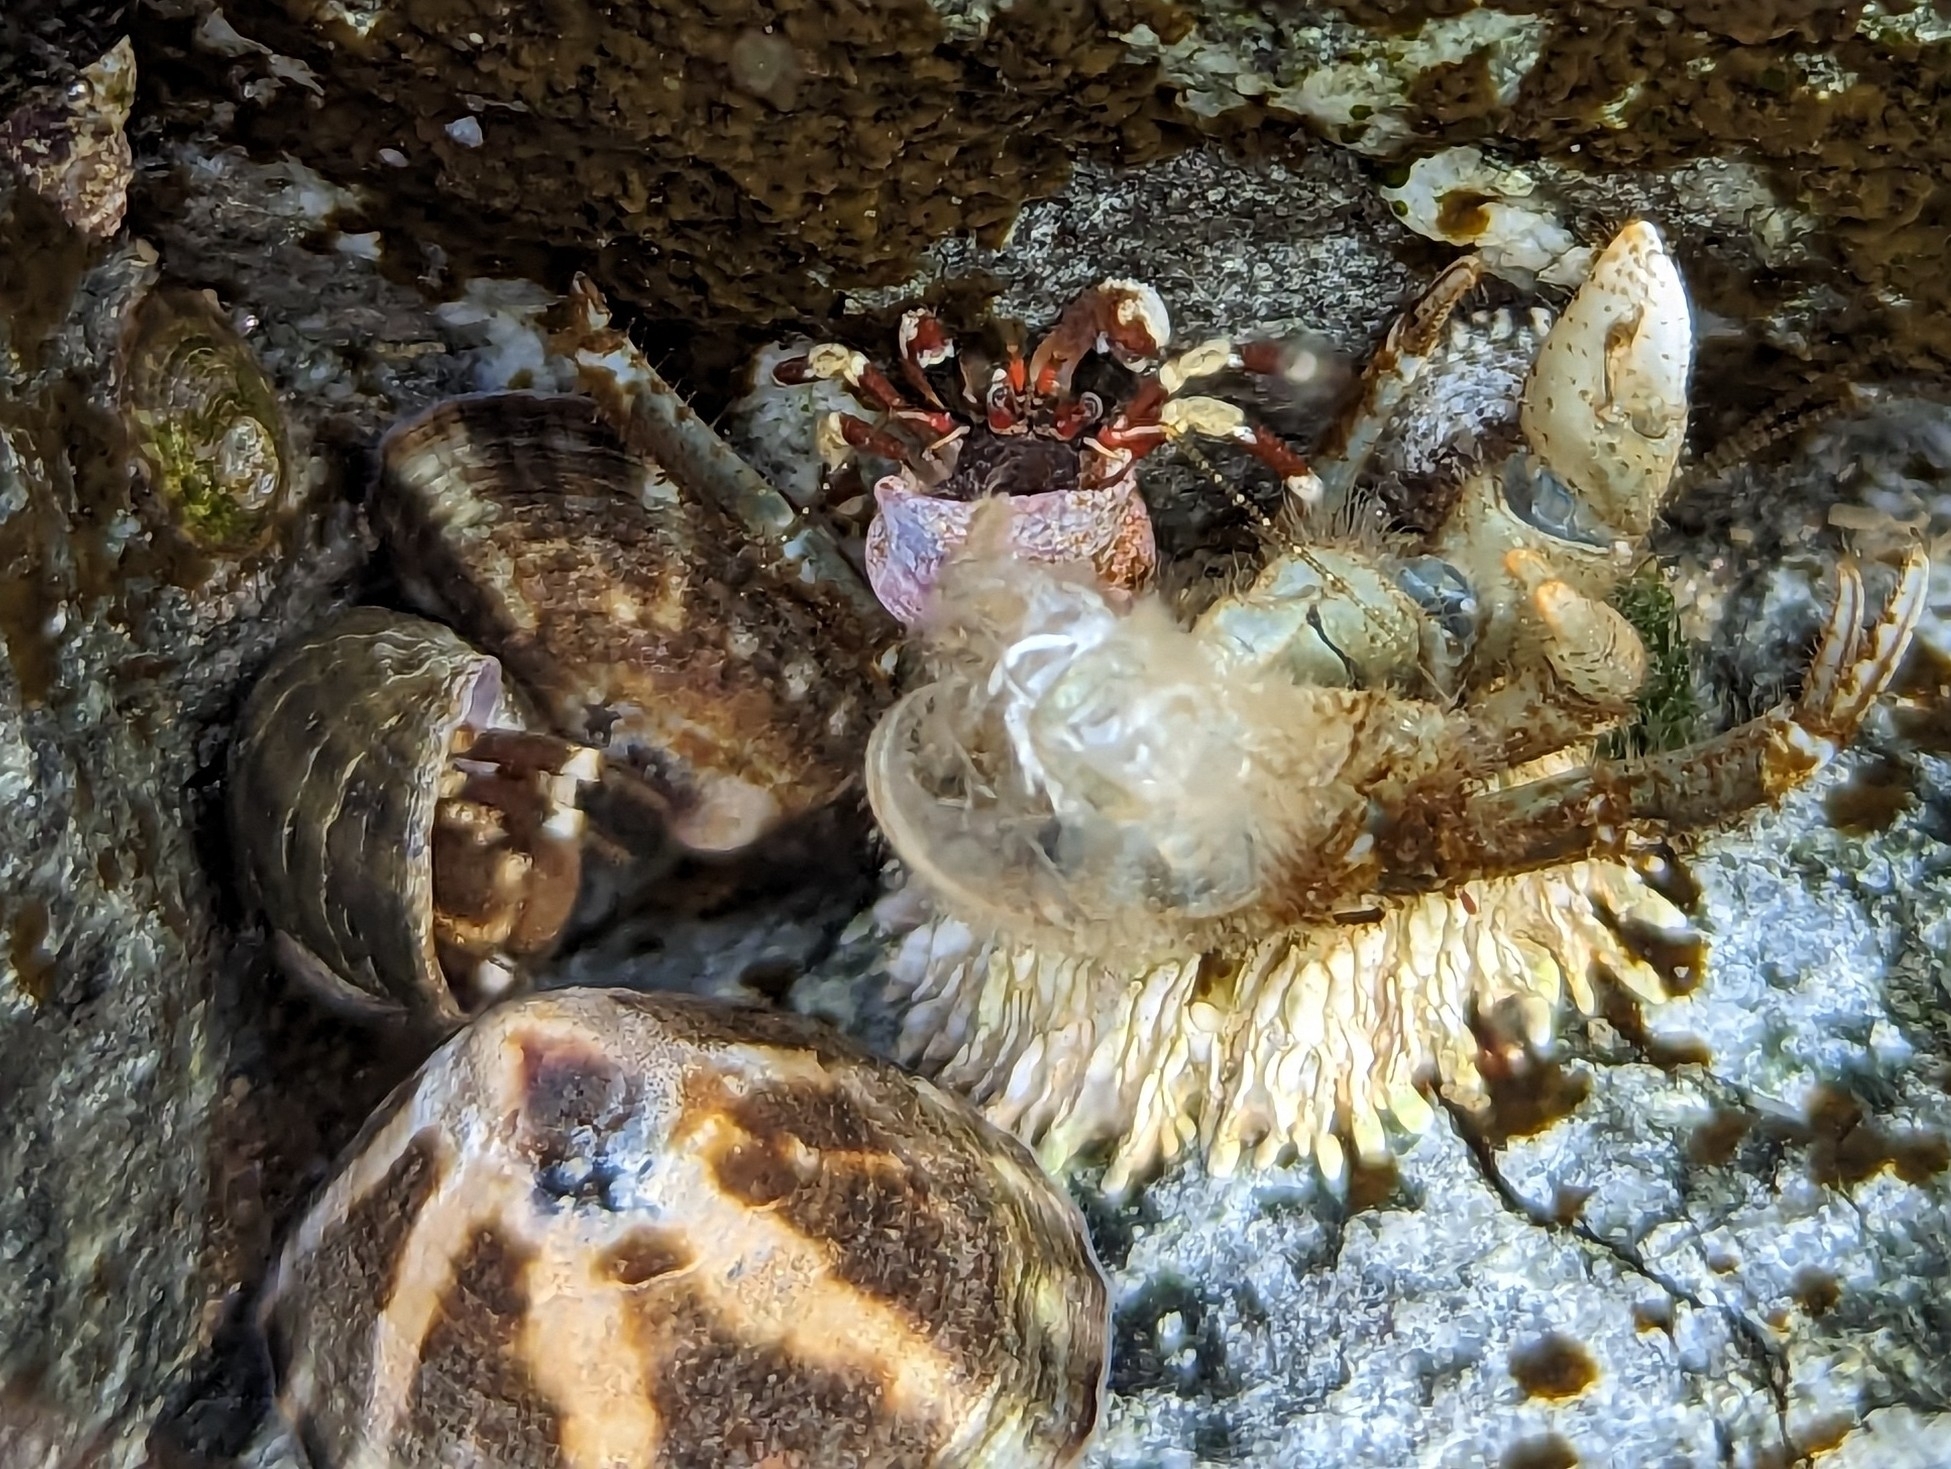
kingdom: Animalia
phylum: Arthropoda
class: Maxillopoda
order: Sessilia
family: Archaeobalanidae
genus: Semibalanus
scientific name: Semibalanus cariosus
